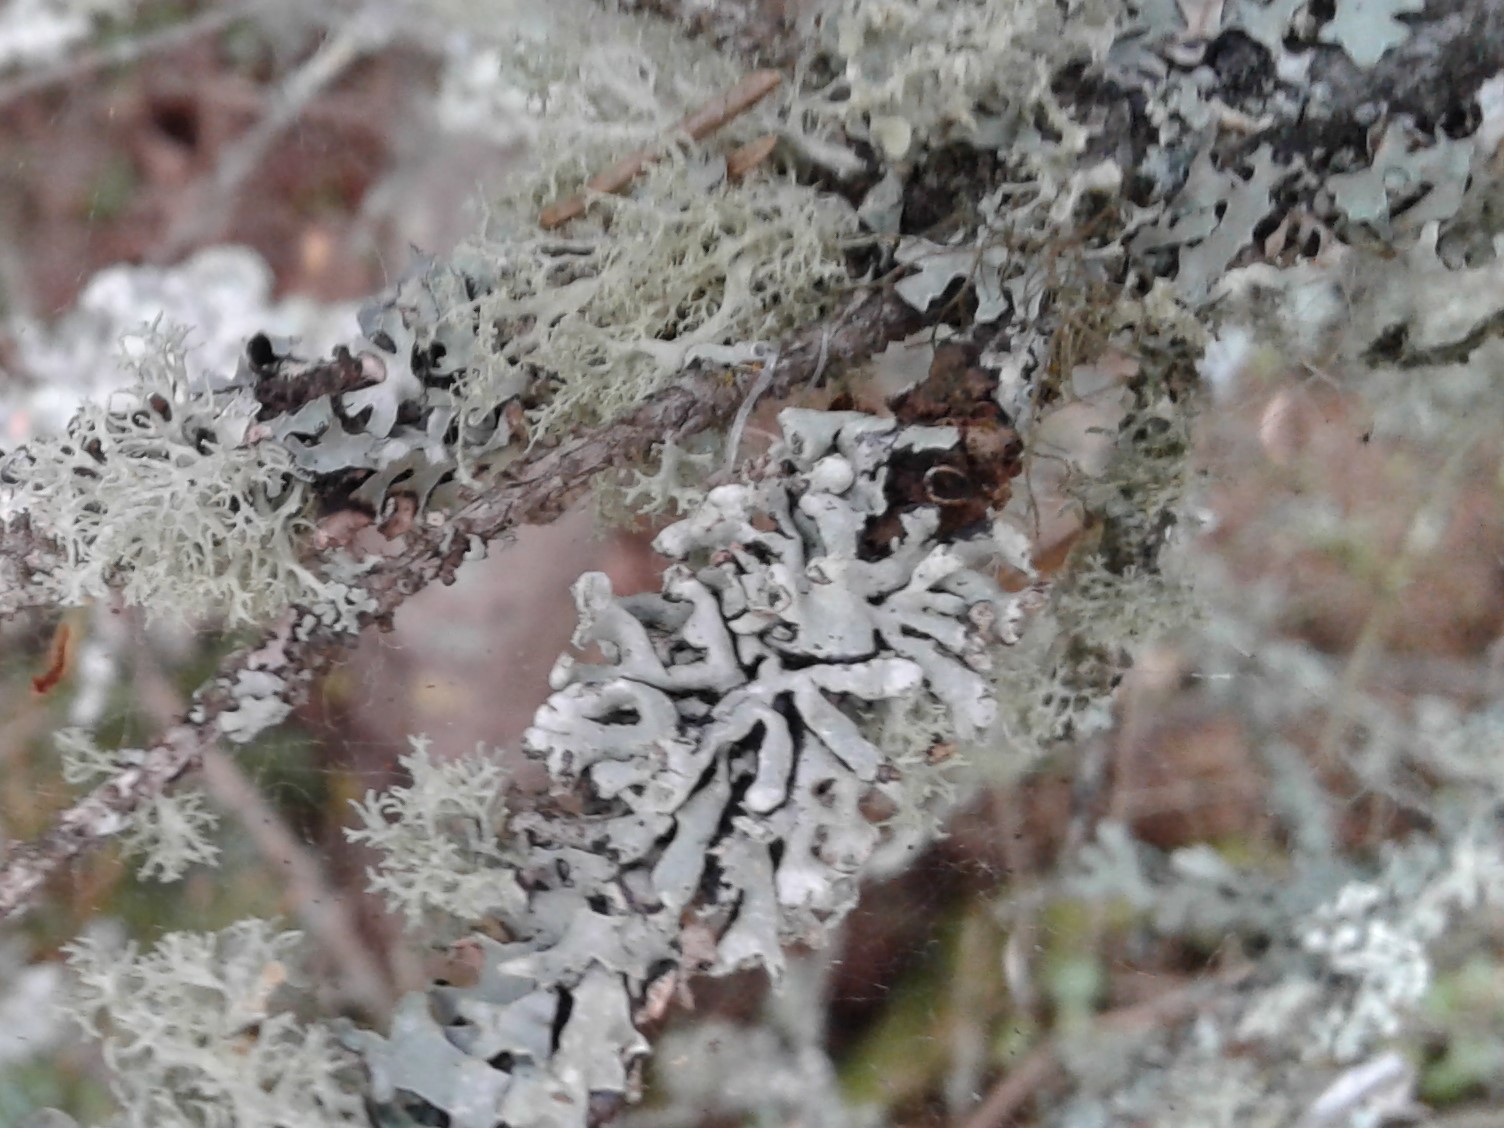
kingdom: Fungi
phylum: Ascomycota
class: Lecanoromycetes
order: Lecanorales
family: Parmeliaceae
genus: Hypogymnia
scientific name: Hypogymnia physodes
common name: Dark crottle
